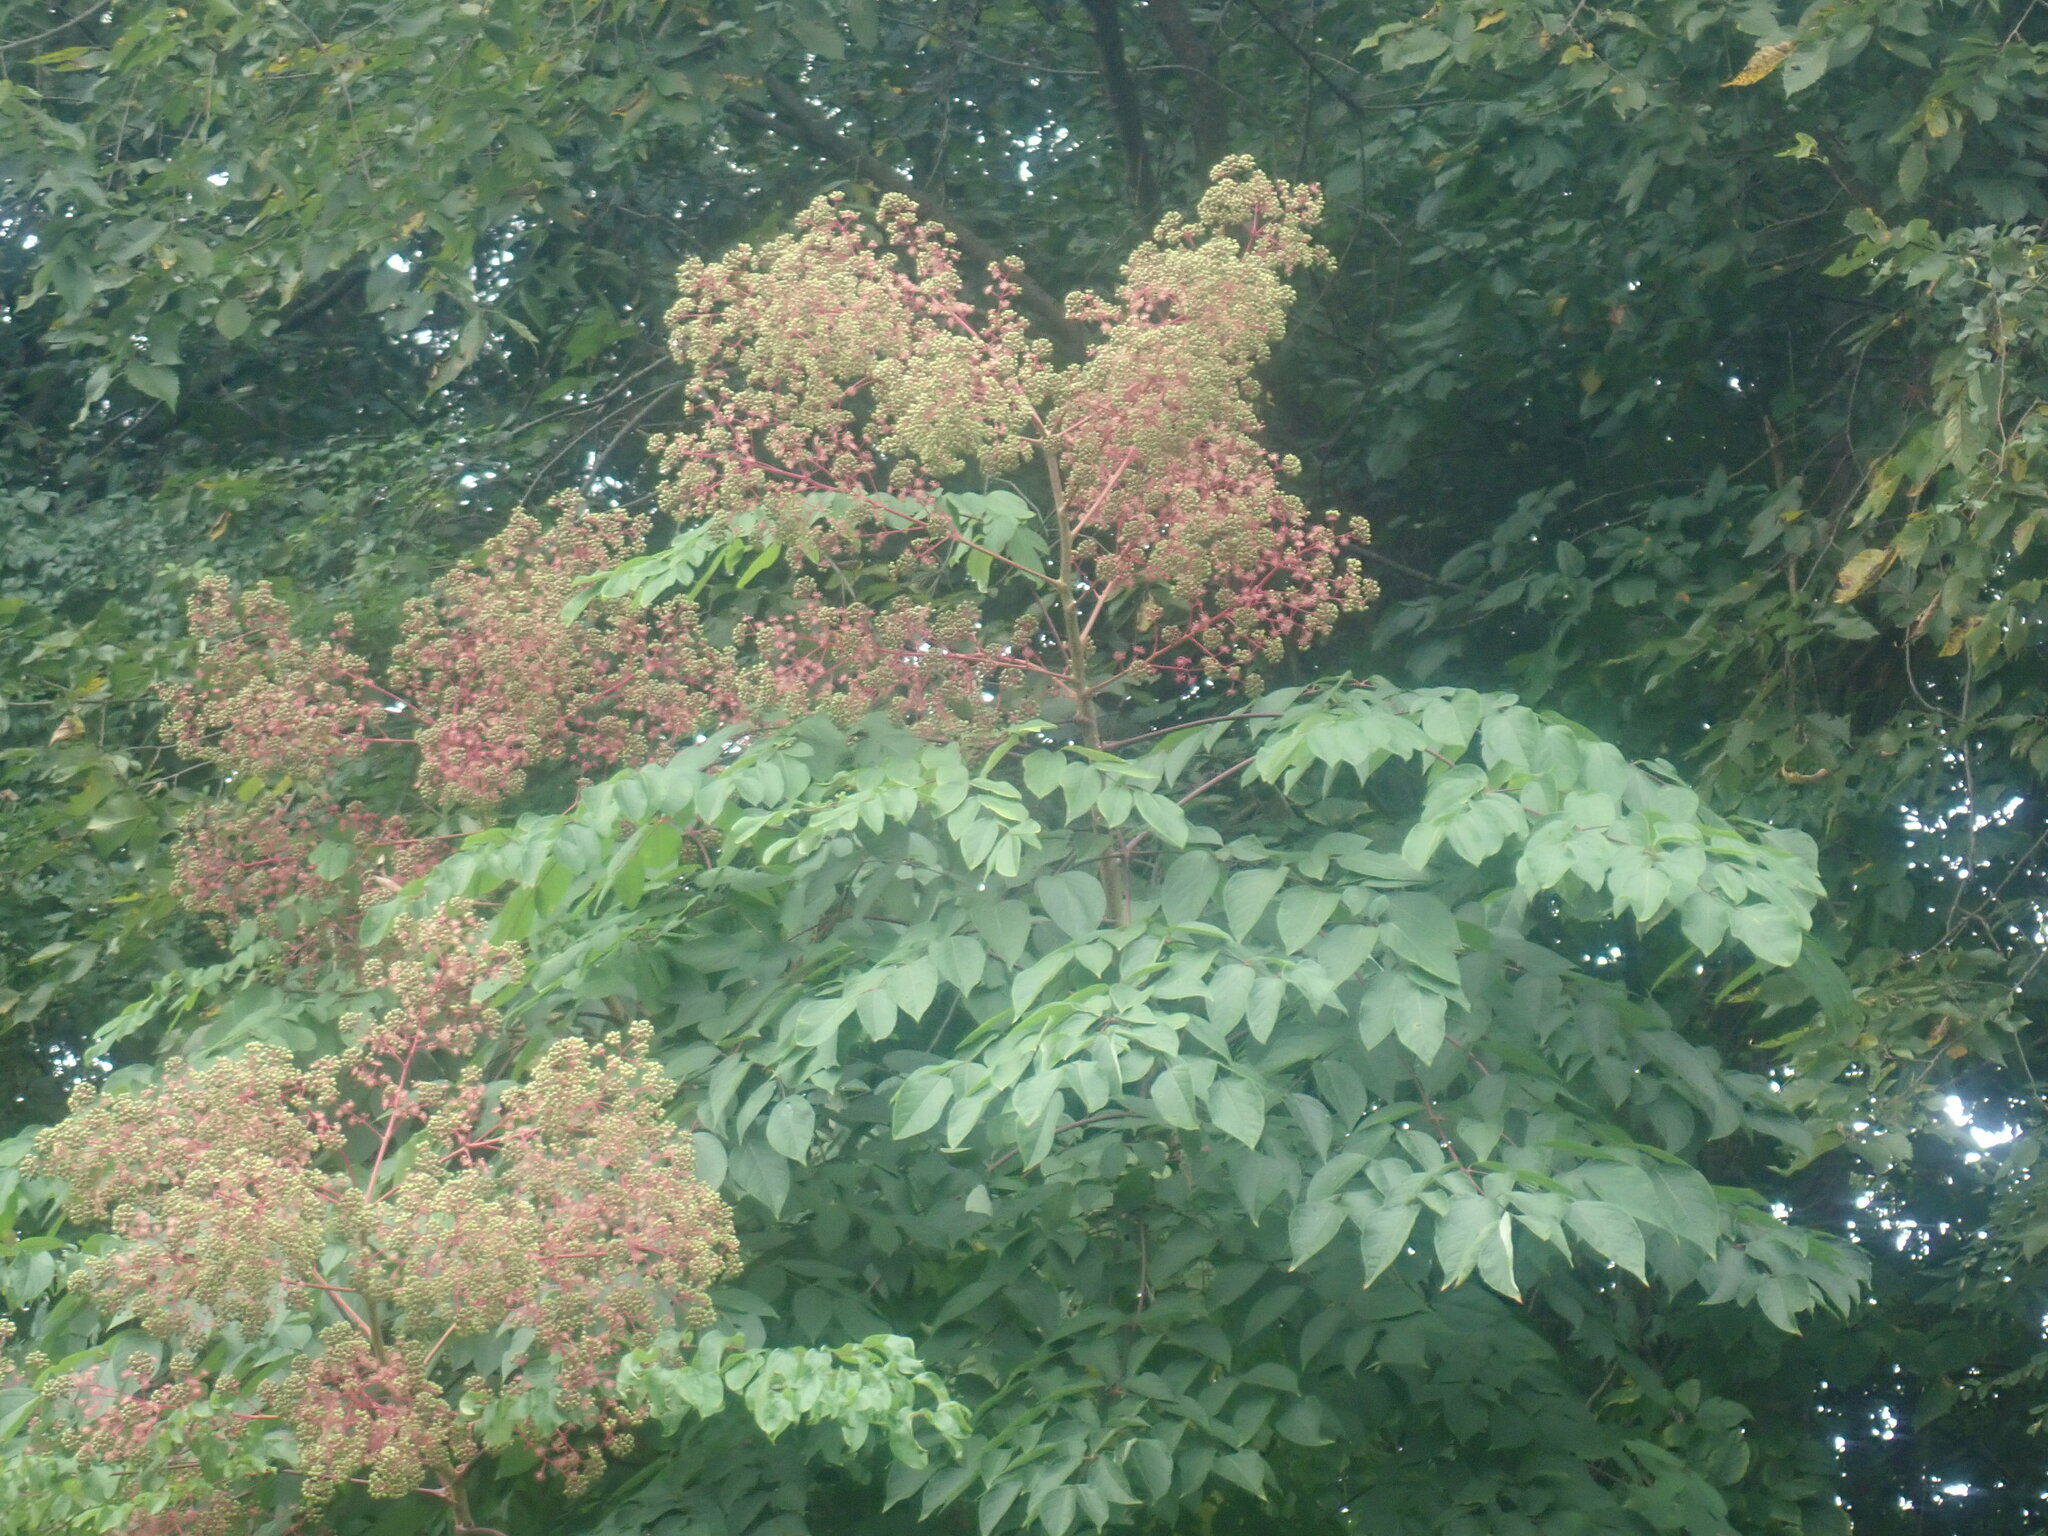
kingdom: Plantae
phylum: Tracheophyta
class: Magnoliopsida
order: Apiales
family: Araliaceae
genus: Aralia
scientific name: Aralia elata
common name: Japanese angelica-tree
